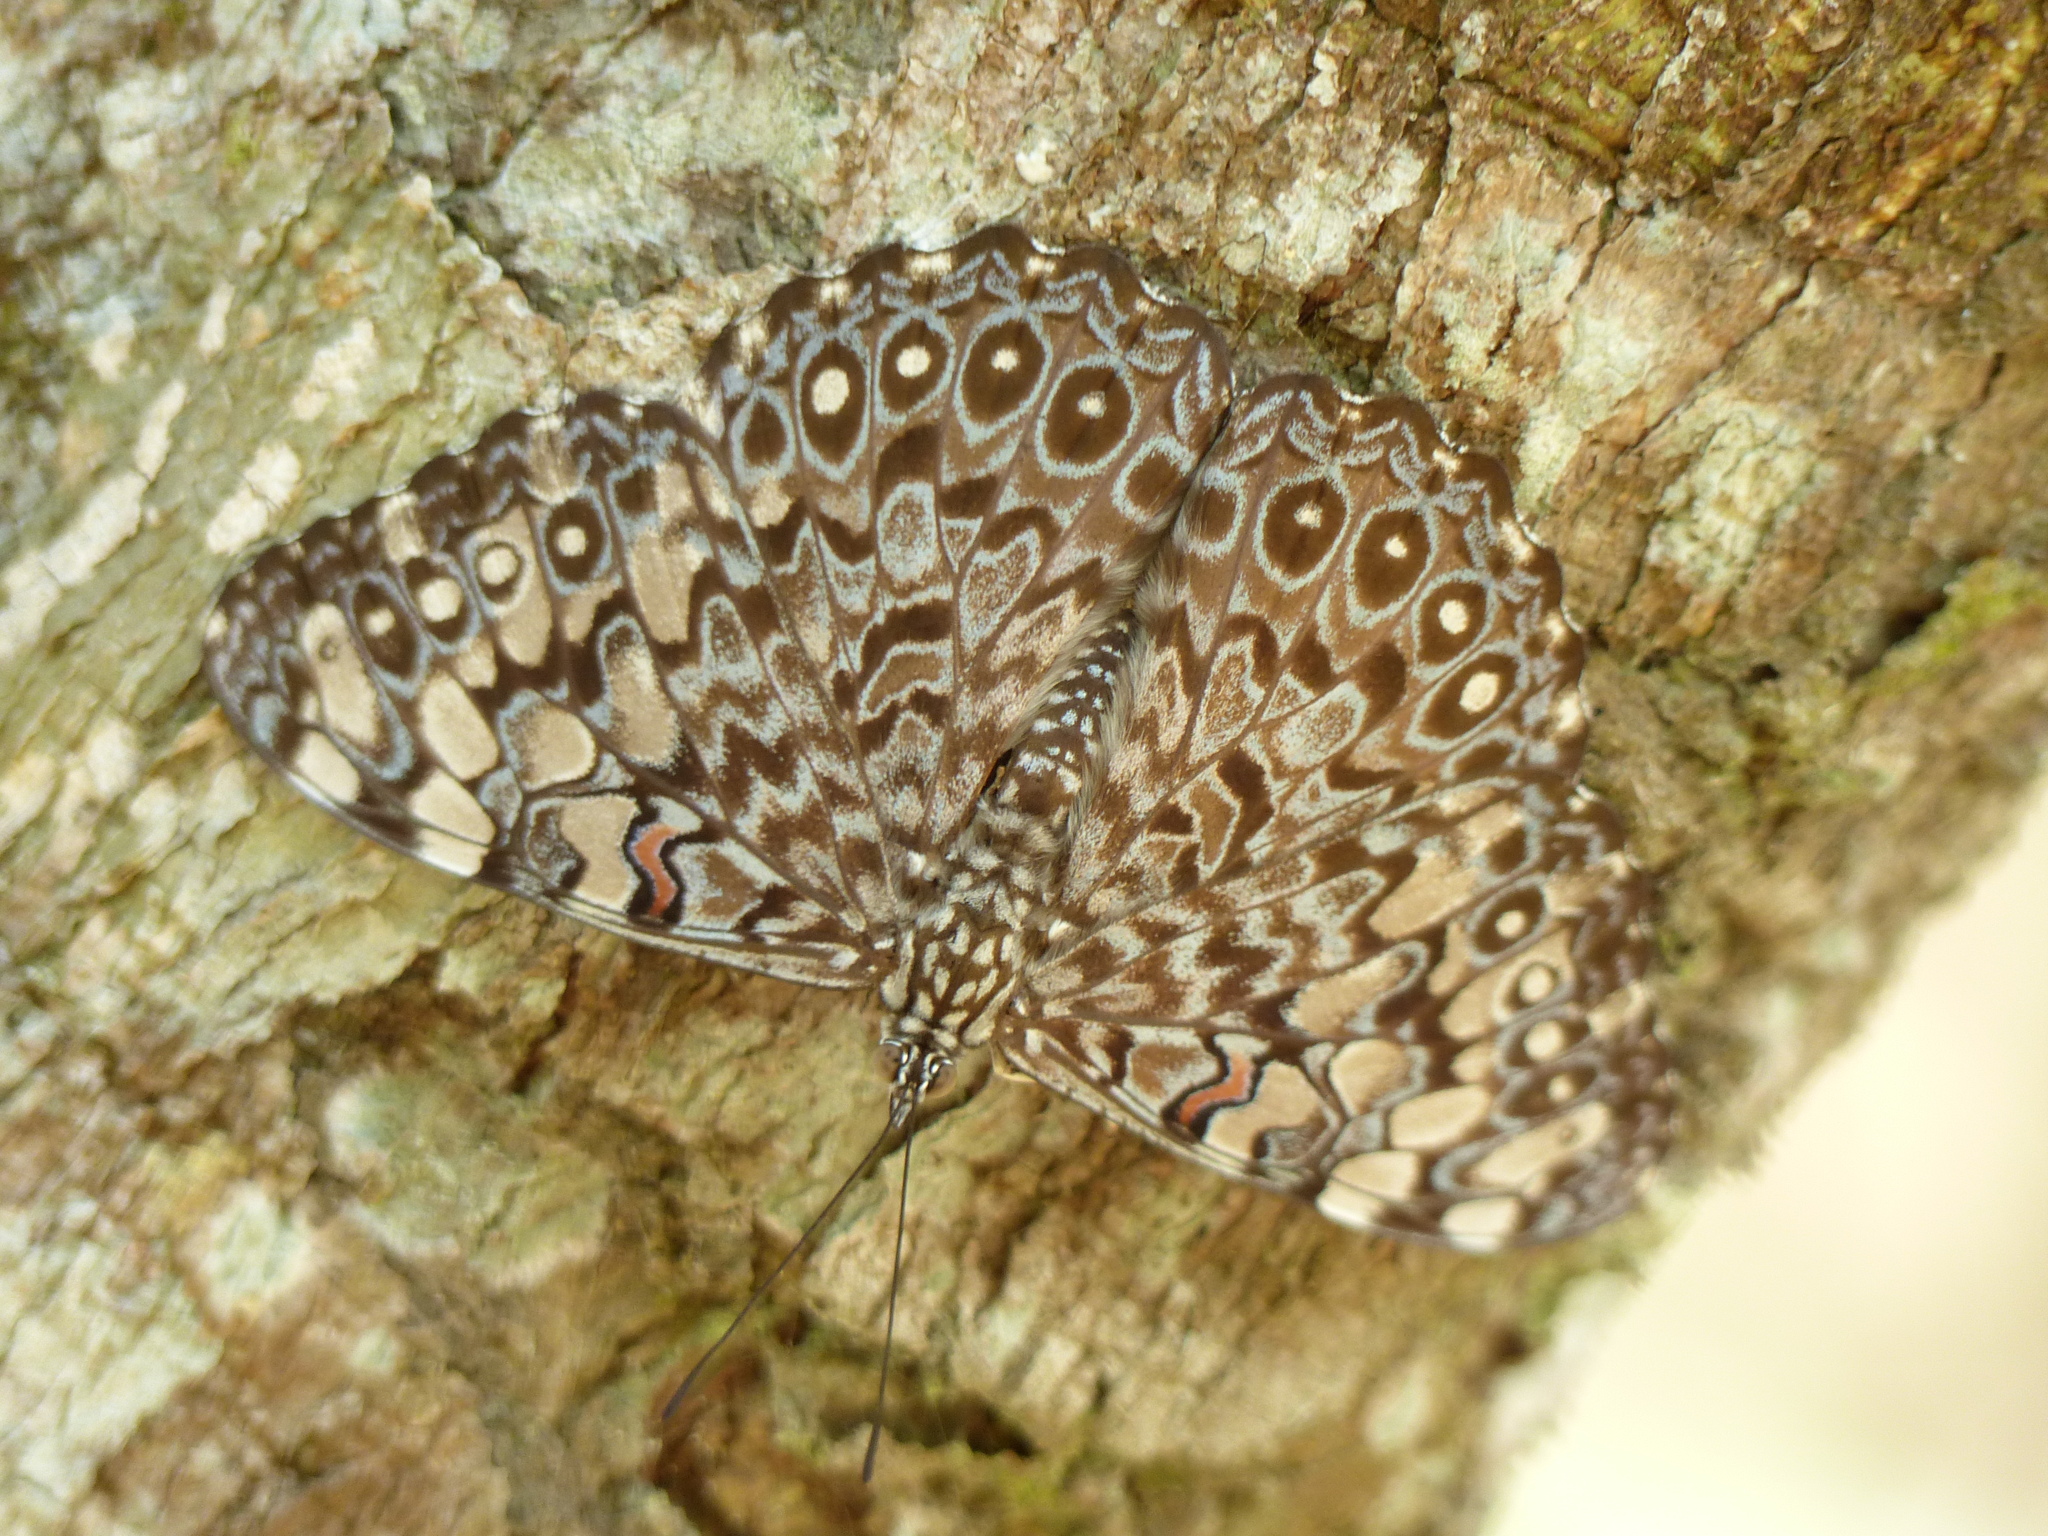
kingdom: Animalia
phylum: Arthropoda
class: Insecta
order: Lepidoptera
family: Nymphalidae
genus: Hamadryas
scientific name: Hamadryas feronia
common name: Variable cracker
